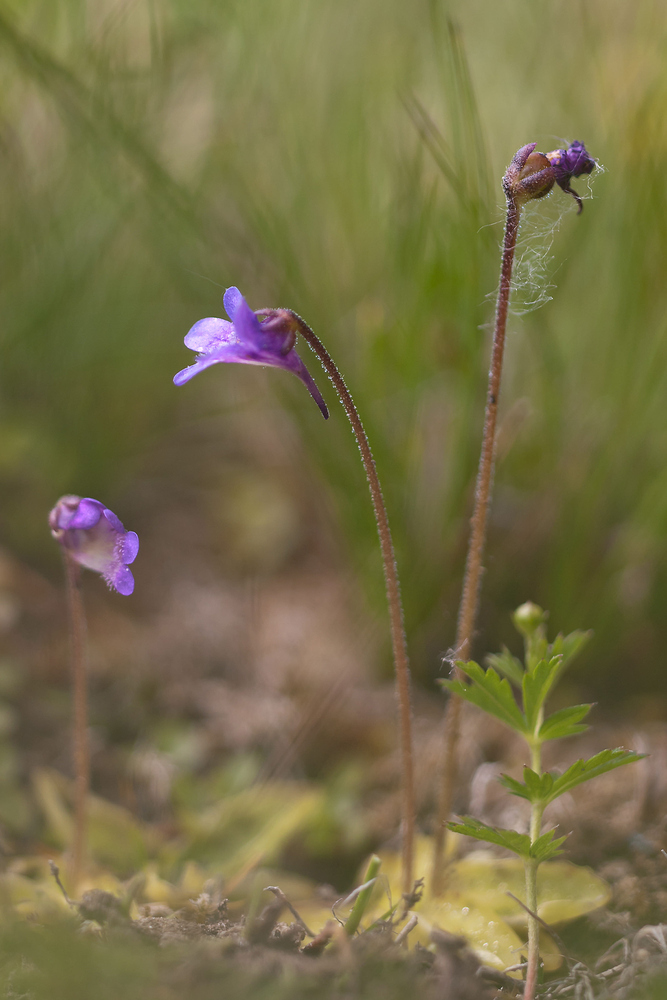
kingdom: Plantae
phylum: Tracheophyta
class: Magnoliopsida
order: Lamiales
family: Lentibulariaceae
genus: Pinguicula
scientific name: Pinguicula vulgaris
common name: Common butterwort
